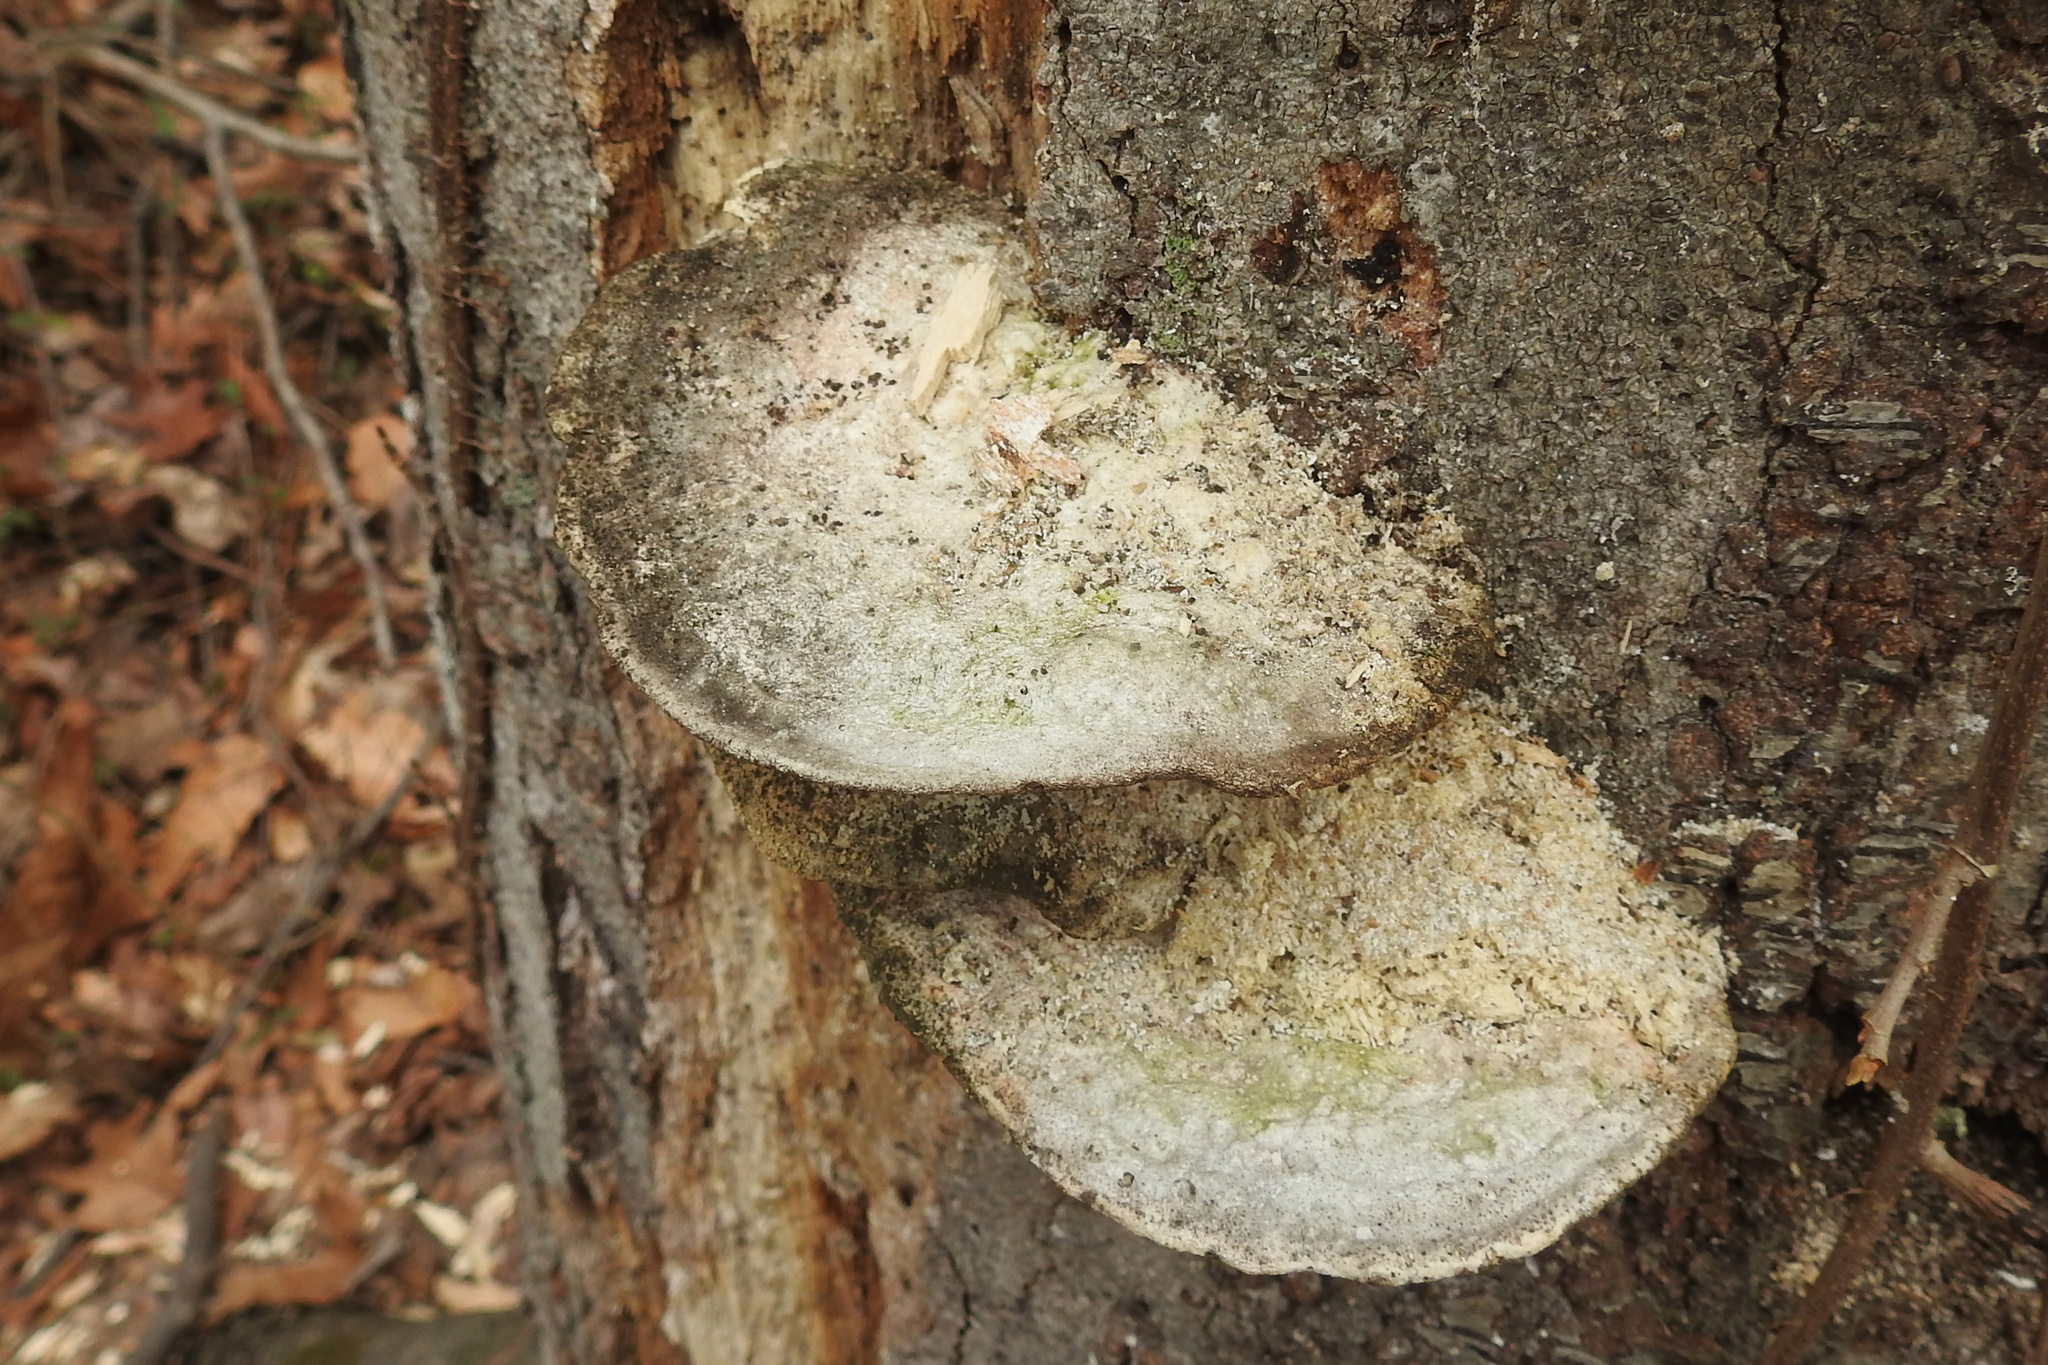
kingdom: Fungi
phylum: Basidiomycota
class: Agaricomycetes
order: Polyporales
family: Polyporaceae
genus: Trametes
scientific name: Trametes gibbosa
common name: Lumpy bracket
